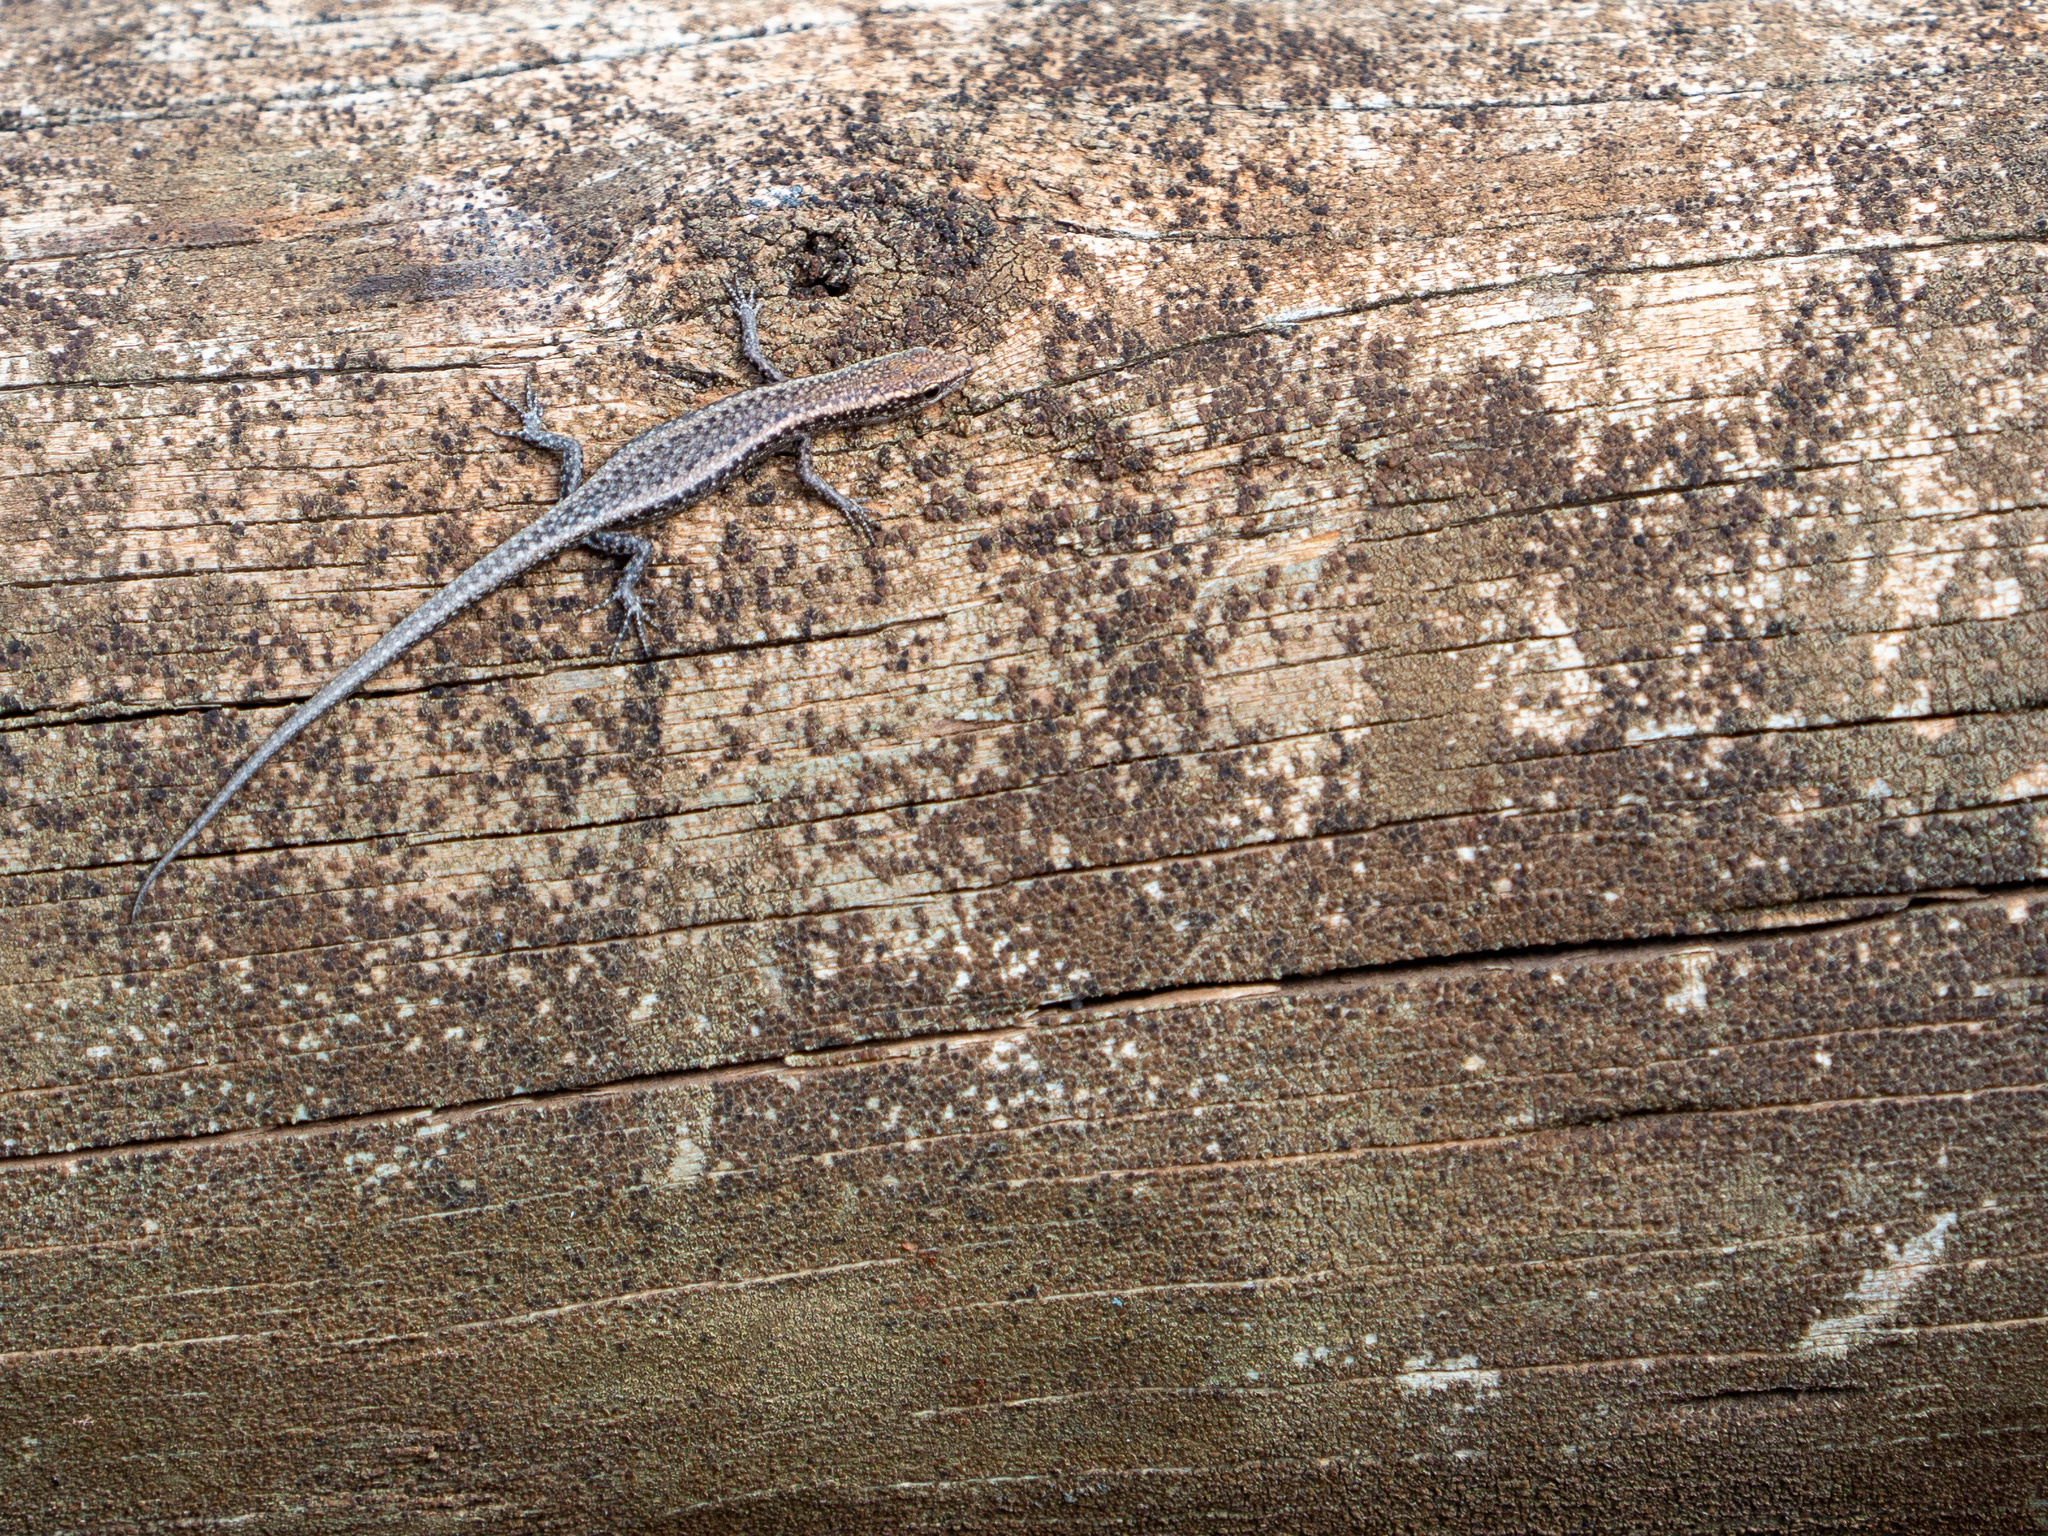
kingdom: Animalia
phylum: Chordata
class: Squamata
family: Scincidae
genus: Cryptoblepharus
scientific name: Cryptoblepharus buchananii
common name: Buchanan's snake-eyed skink
